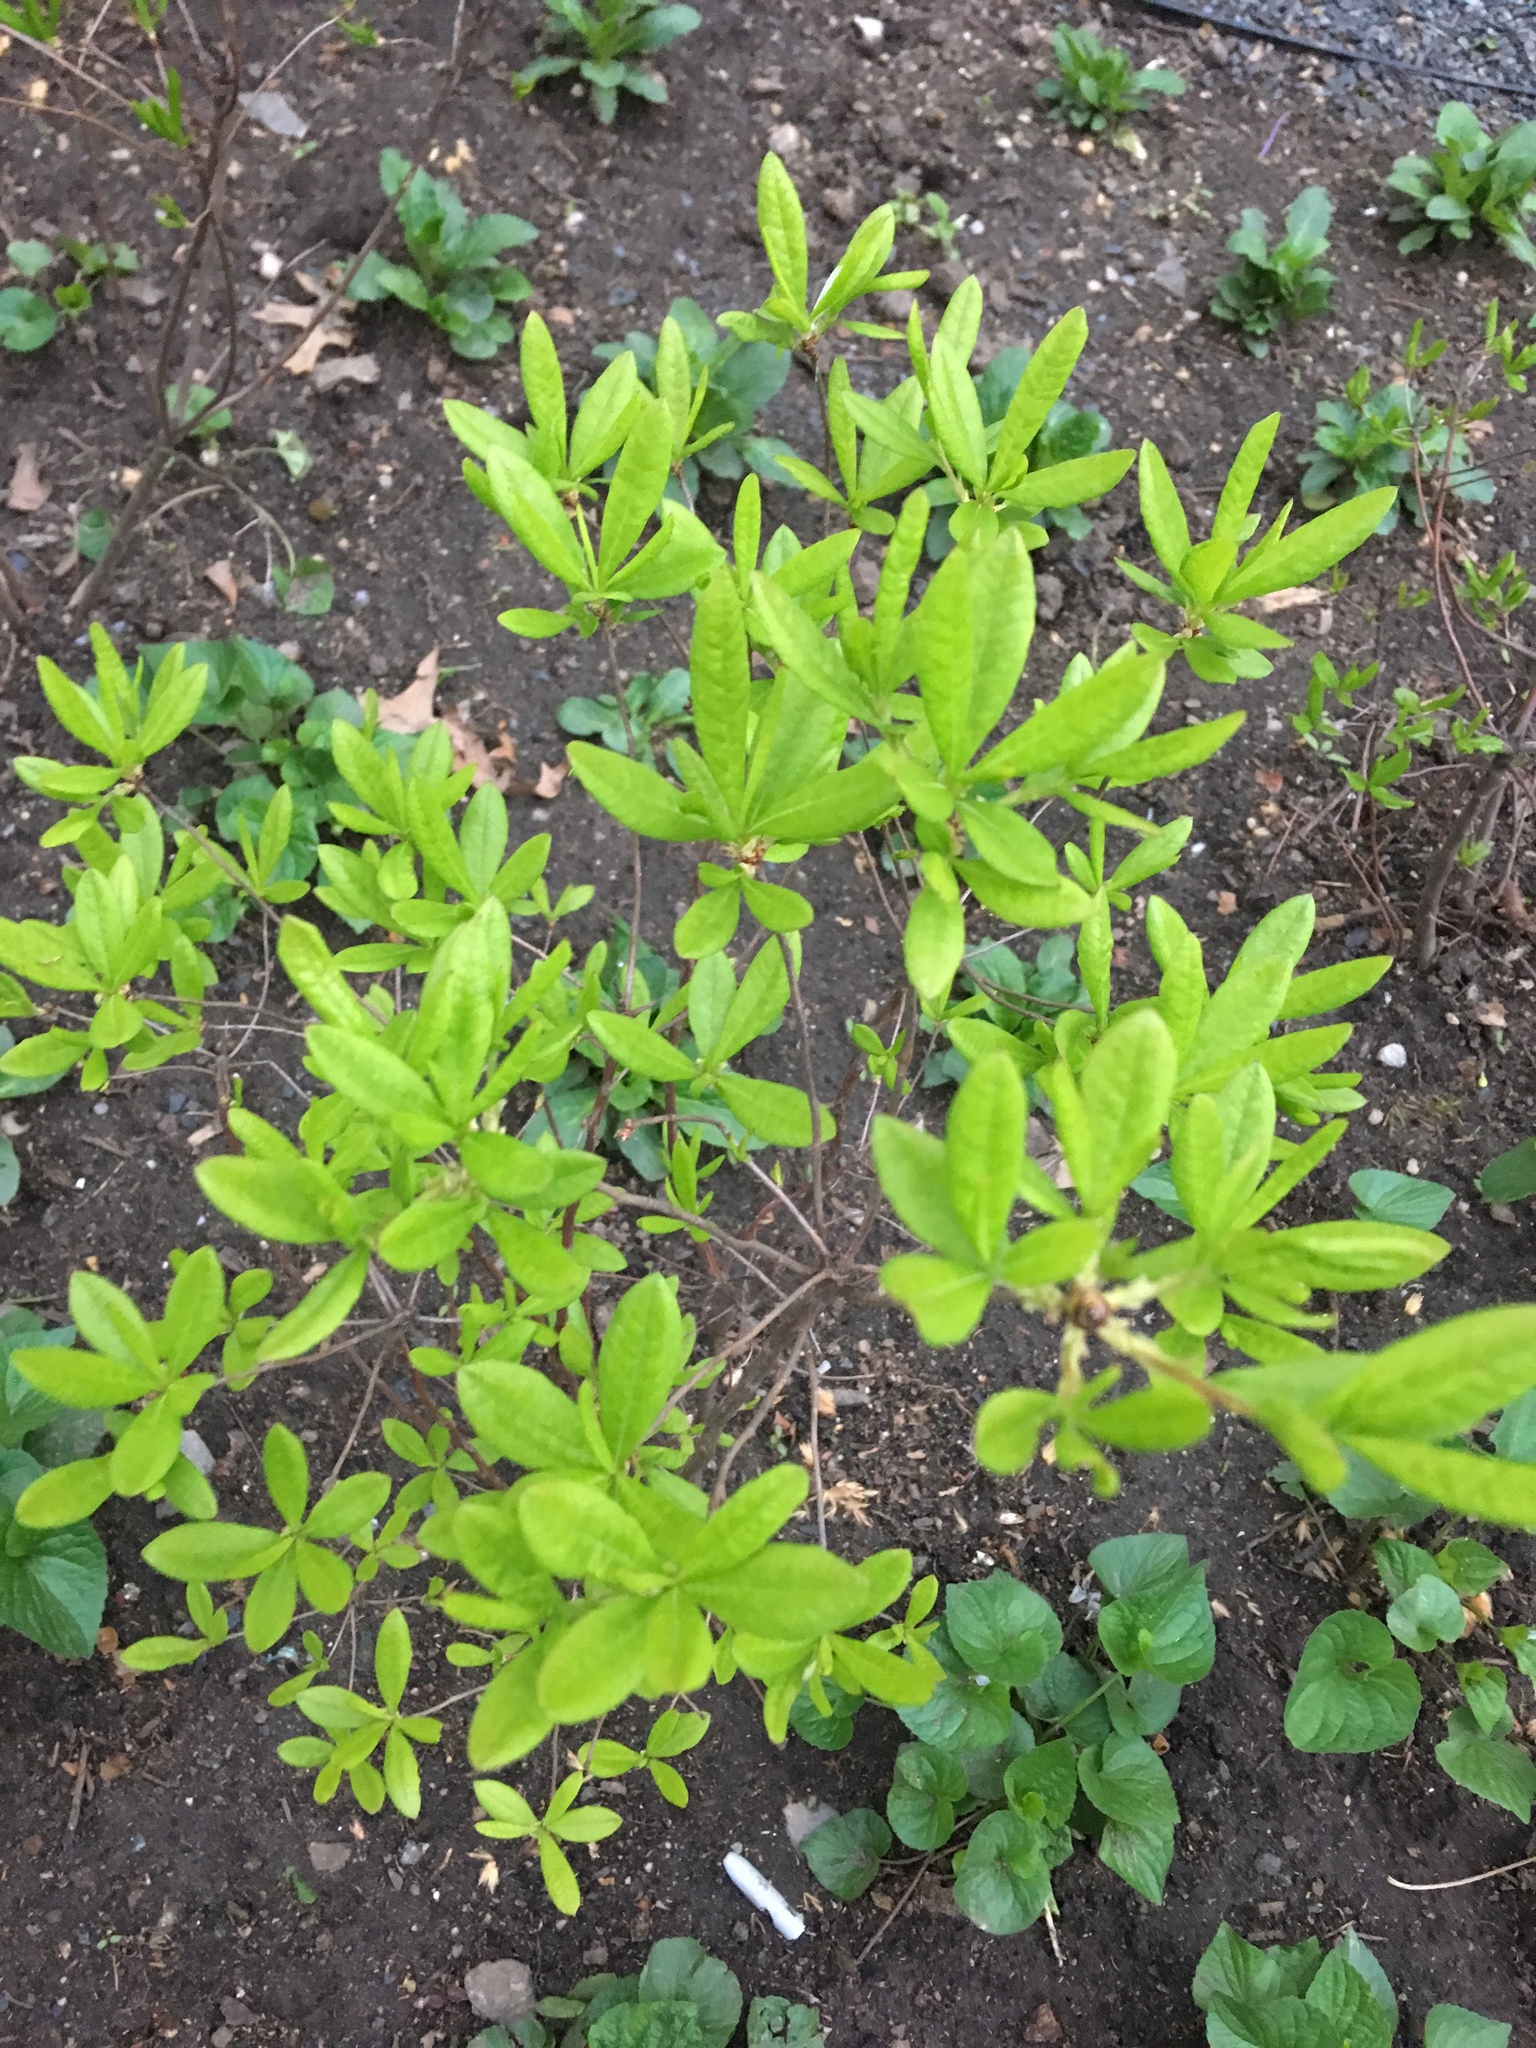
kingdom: Plantae
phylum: Tracheophyta
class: Magnoliopsida
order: Ericales
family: Ericaceae
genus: Rhododendron
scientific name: Rhododendron viscosum
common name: Clammy azalea
